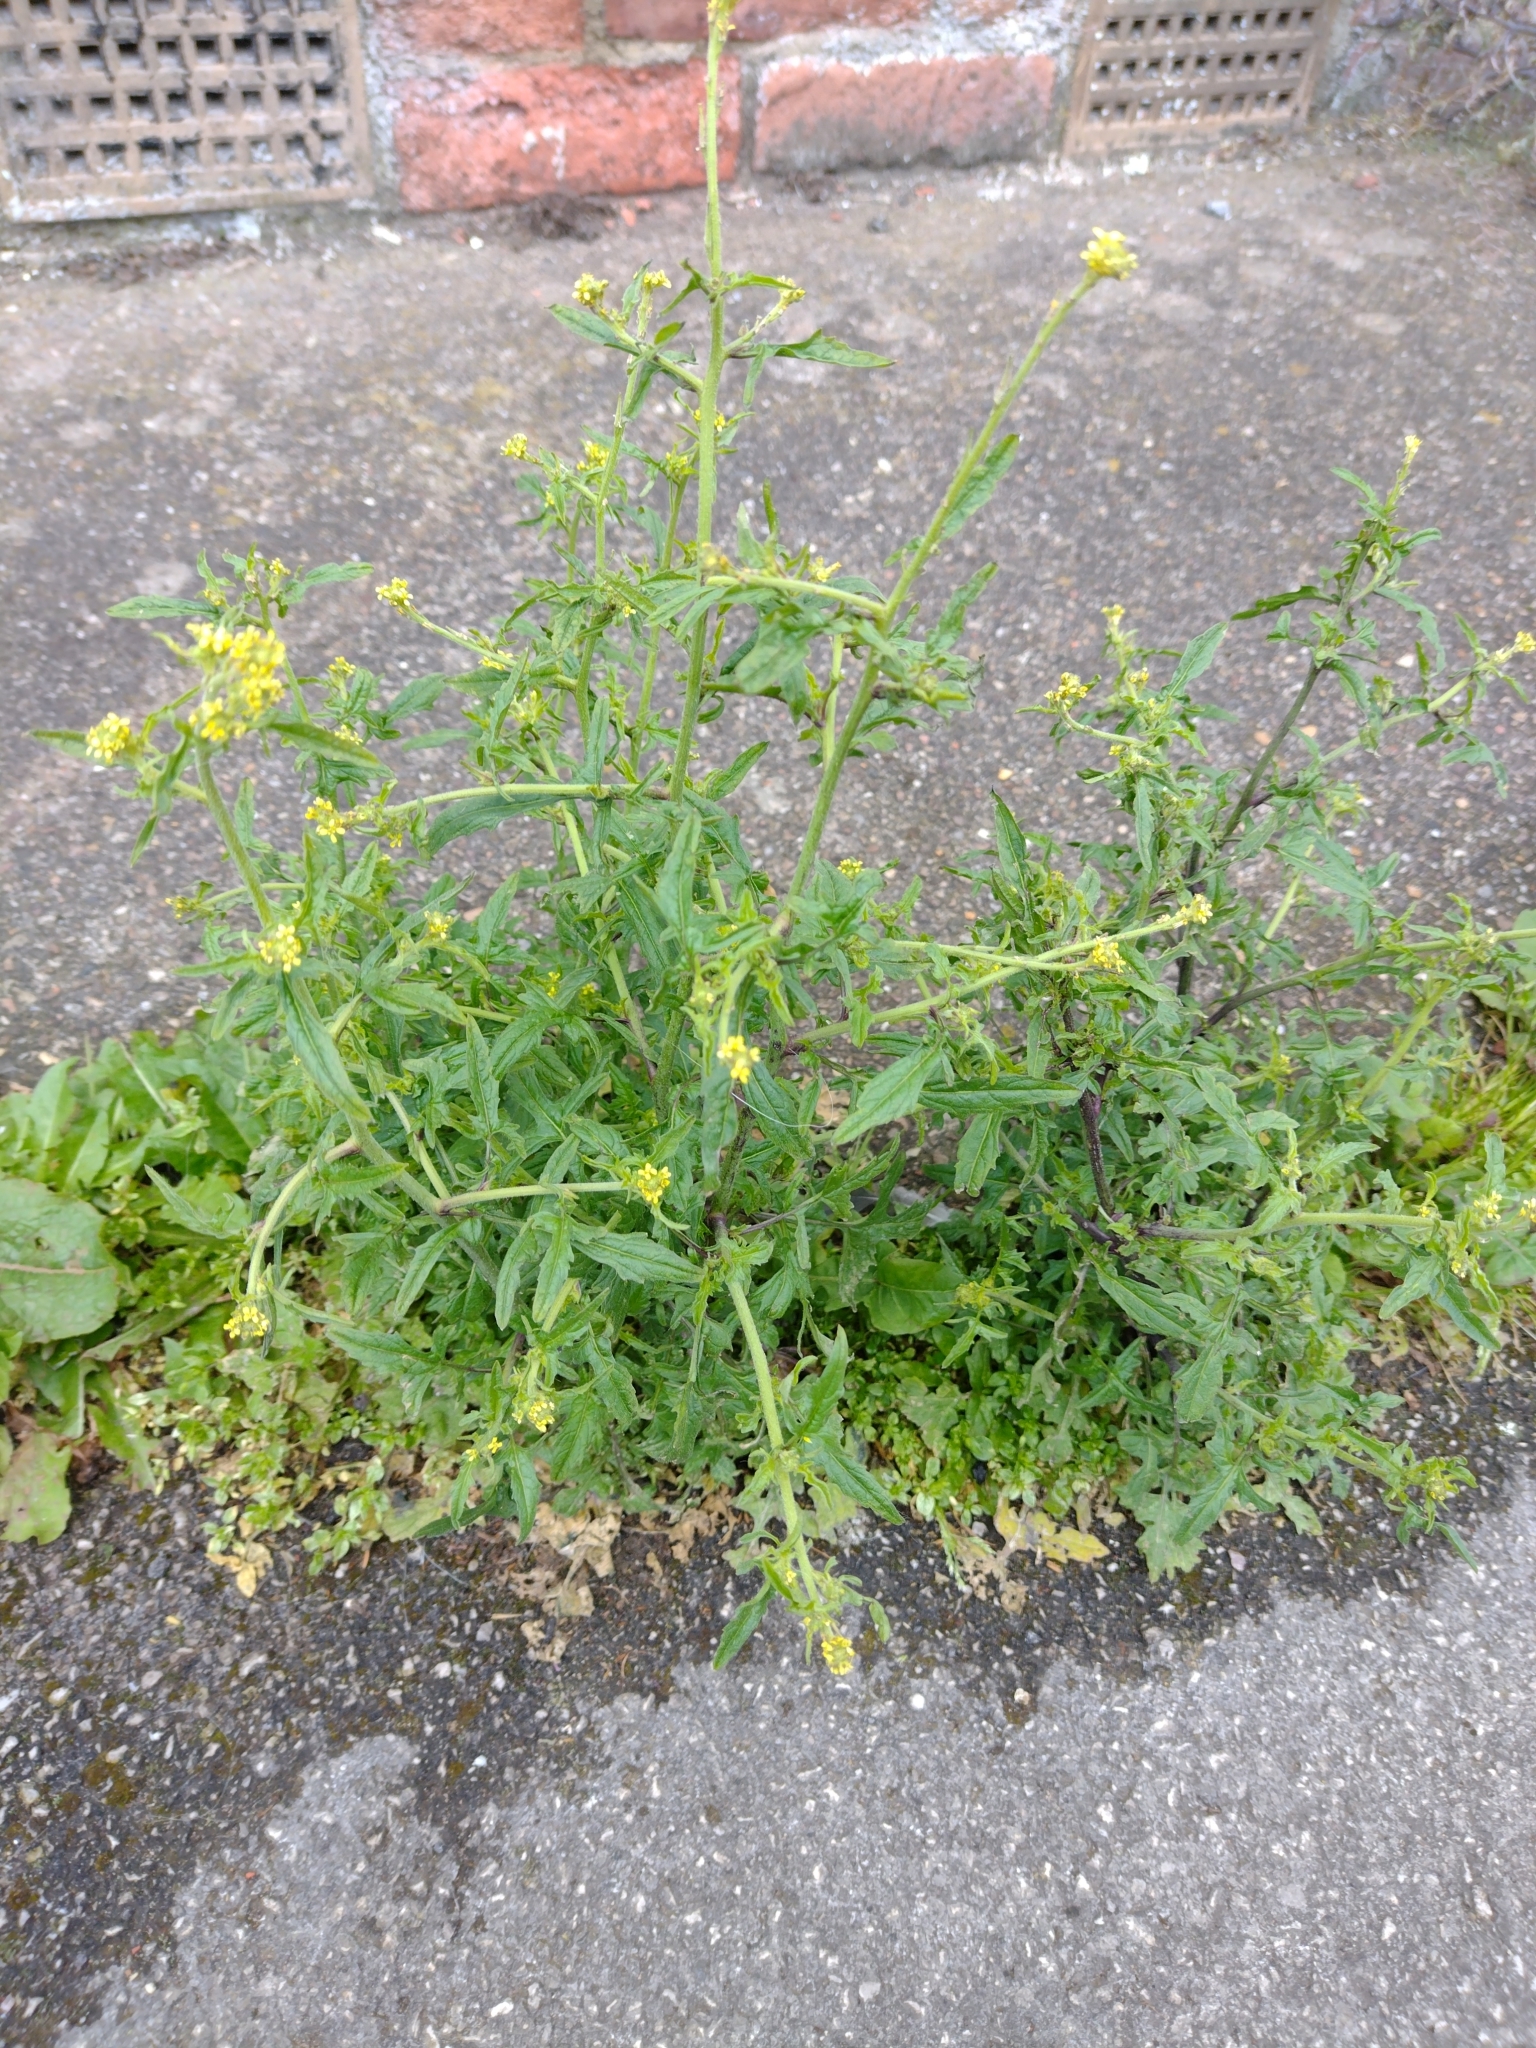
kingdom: Plantae
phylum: Tracheophyta
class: Magnoliopsida
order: Brassicales
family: Brassicaceae
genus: Sisymbrium
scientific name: Sisymbrium officinale
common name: Hedge mustard
